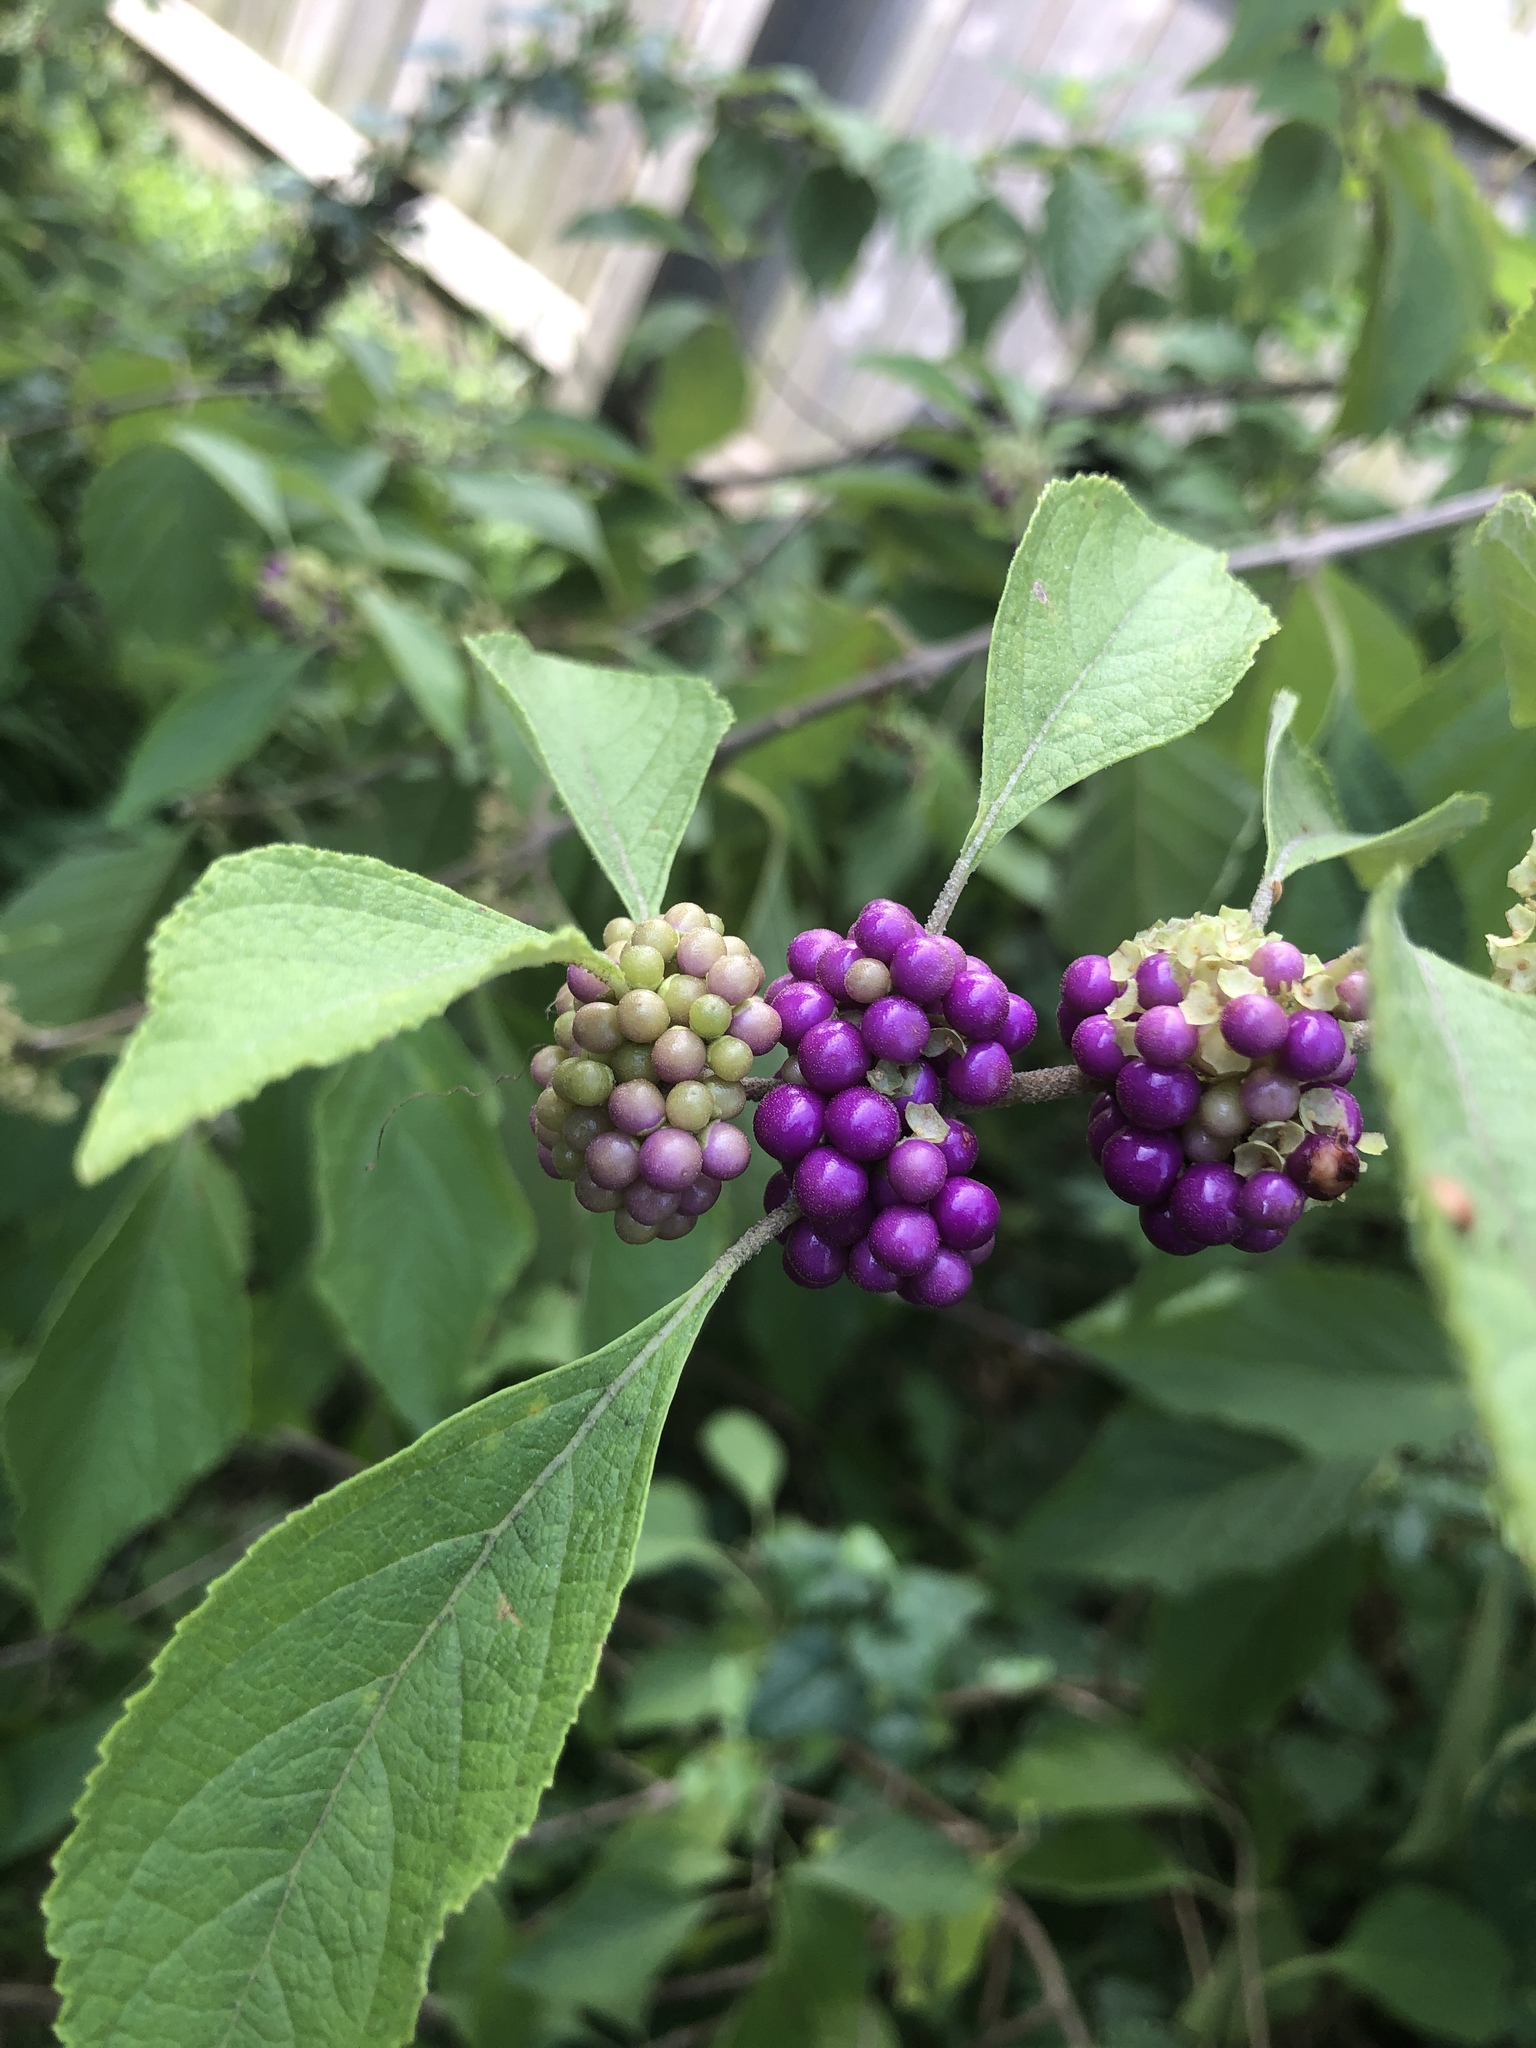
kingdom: Plantae
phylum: Tracheophyta
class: Magnoliopsida
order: Lamiales
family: Lamiaceae
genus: Callicarpa
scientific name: Callicarpa americana
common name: American beautyberry
